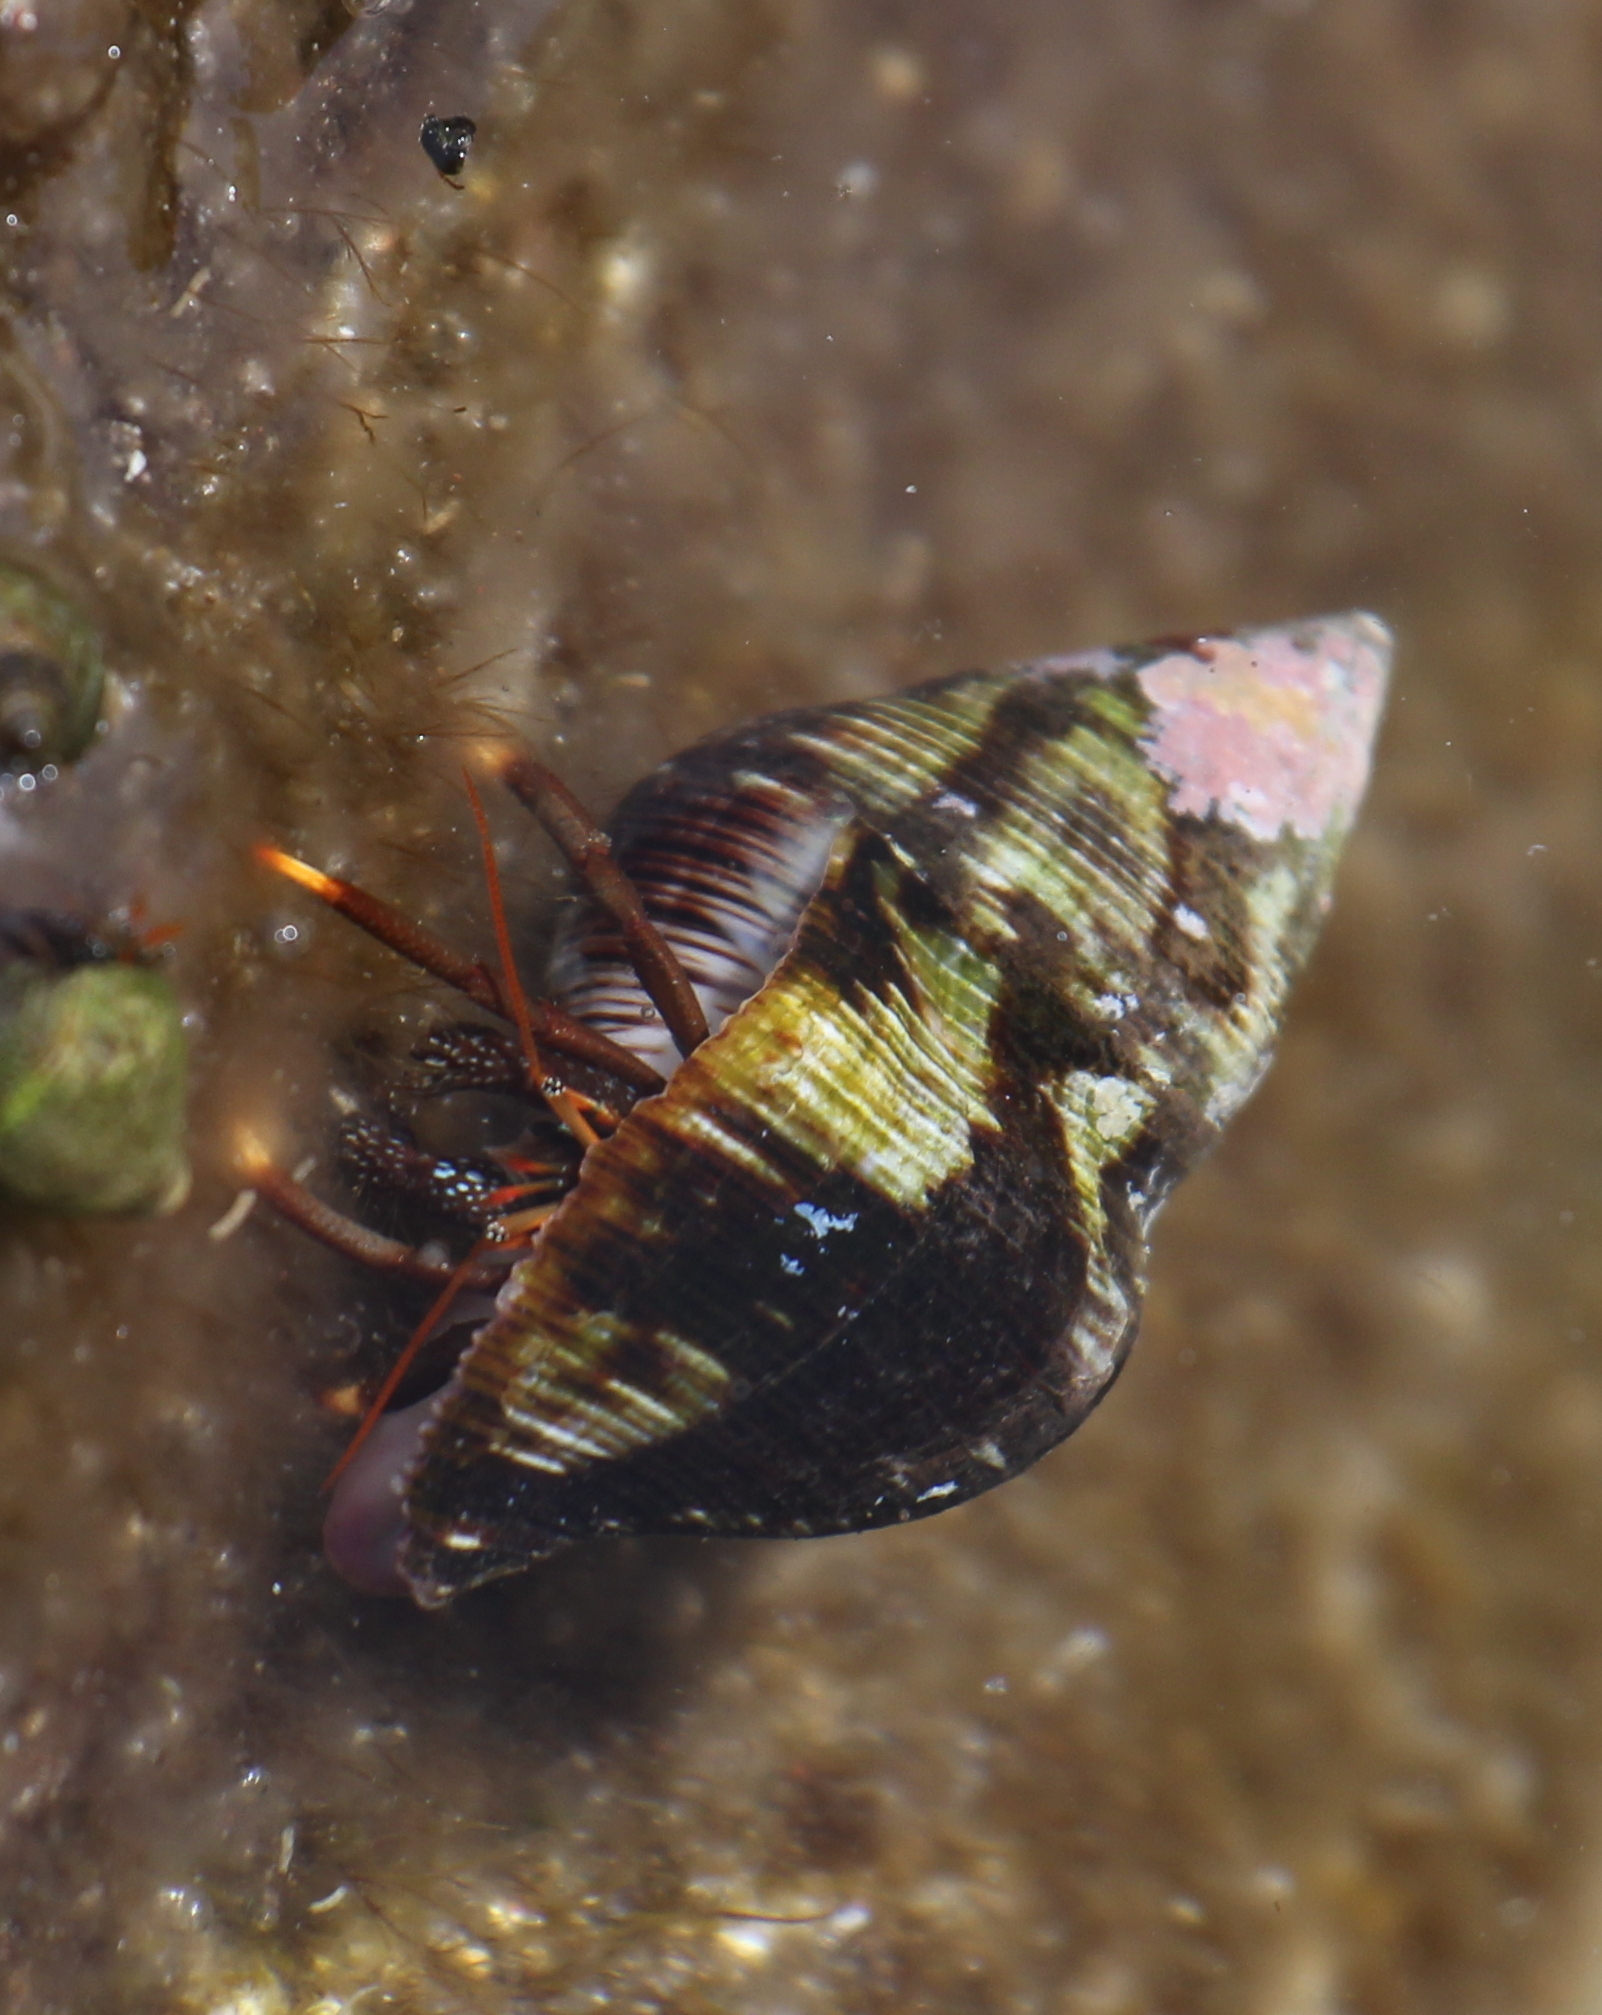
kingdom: Animalia
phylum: Arthropoda
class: Malacostraca
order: Decapoda
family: Diogenidae
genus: Clibanarius
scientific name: Clibanarius aequabilis
